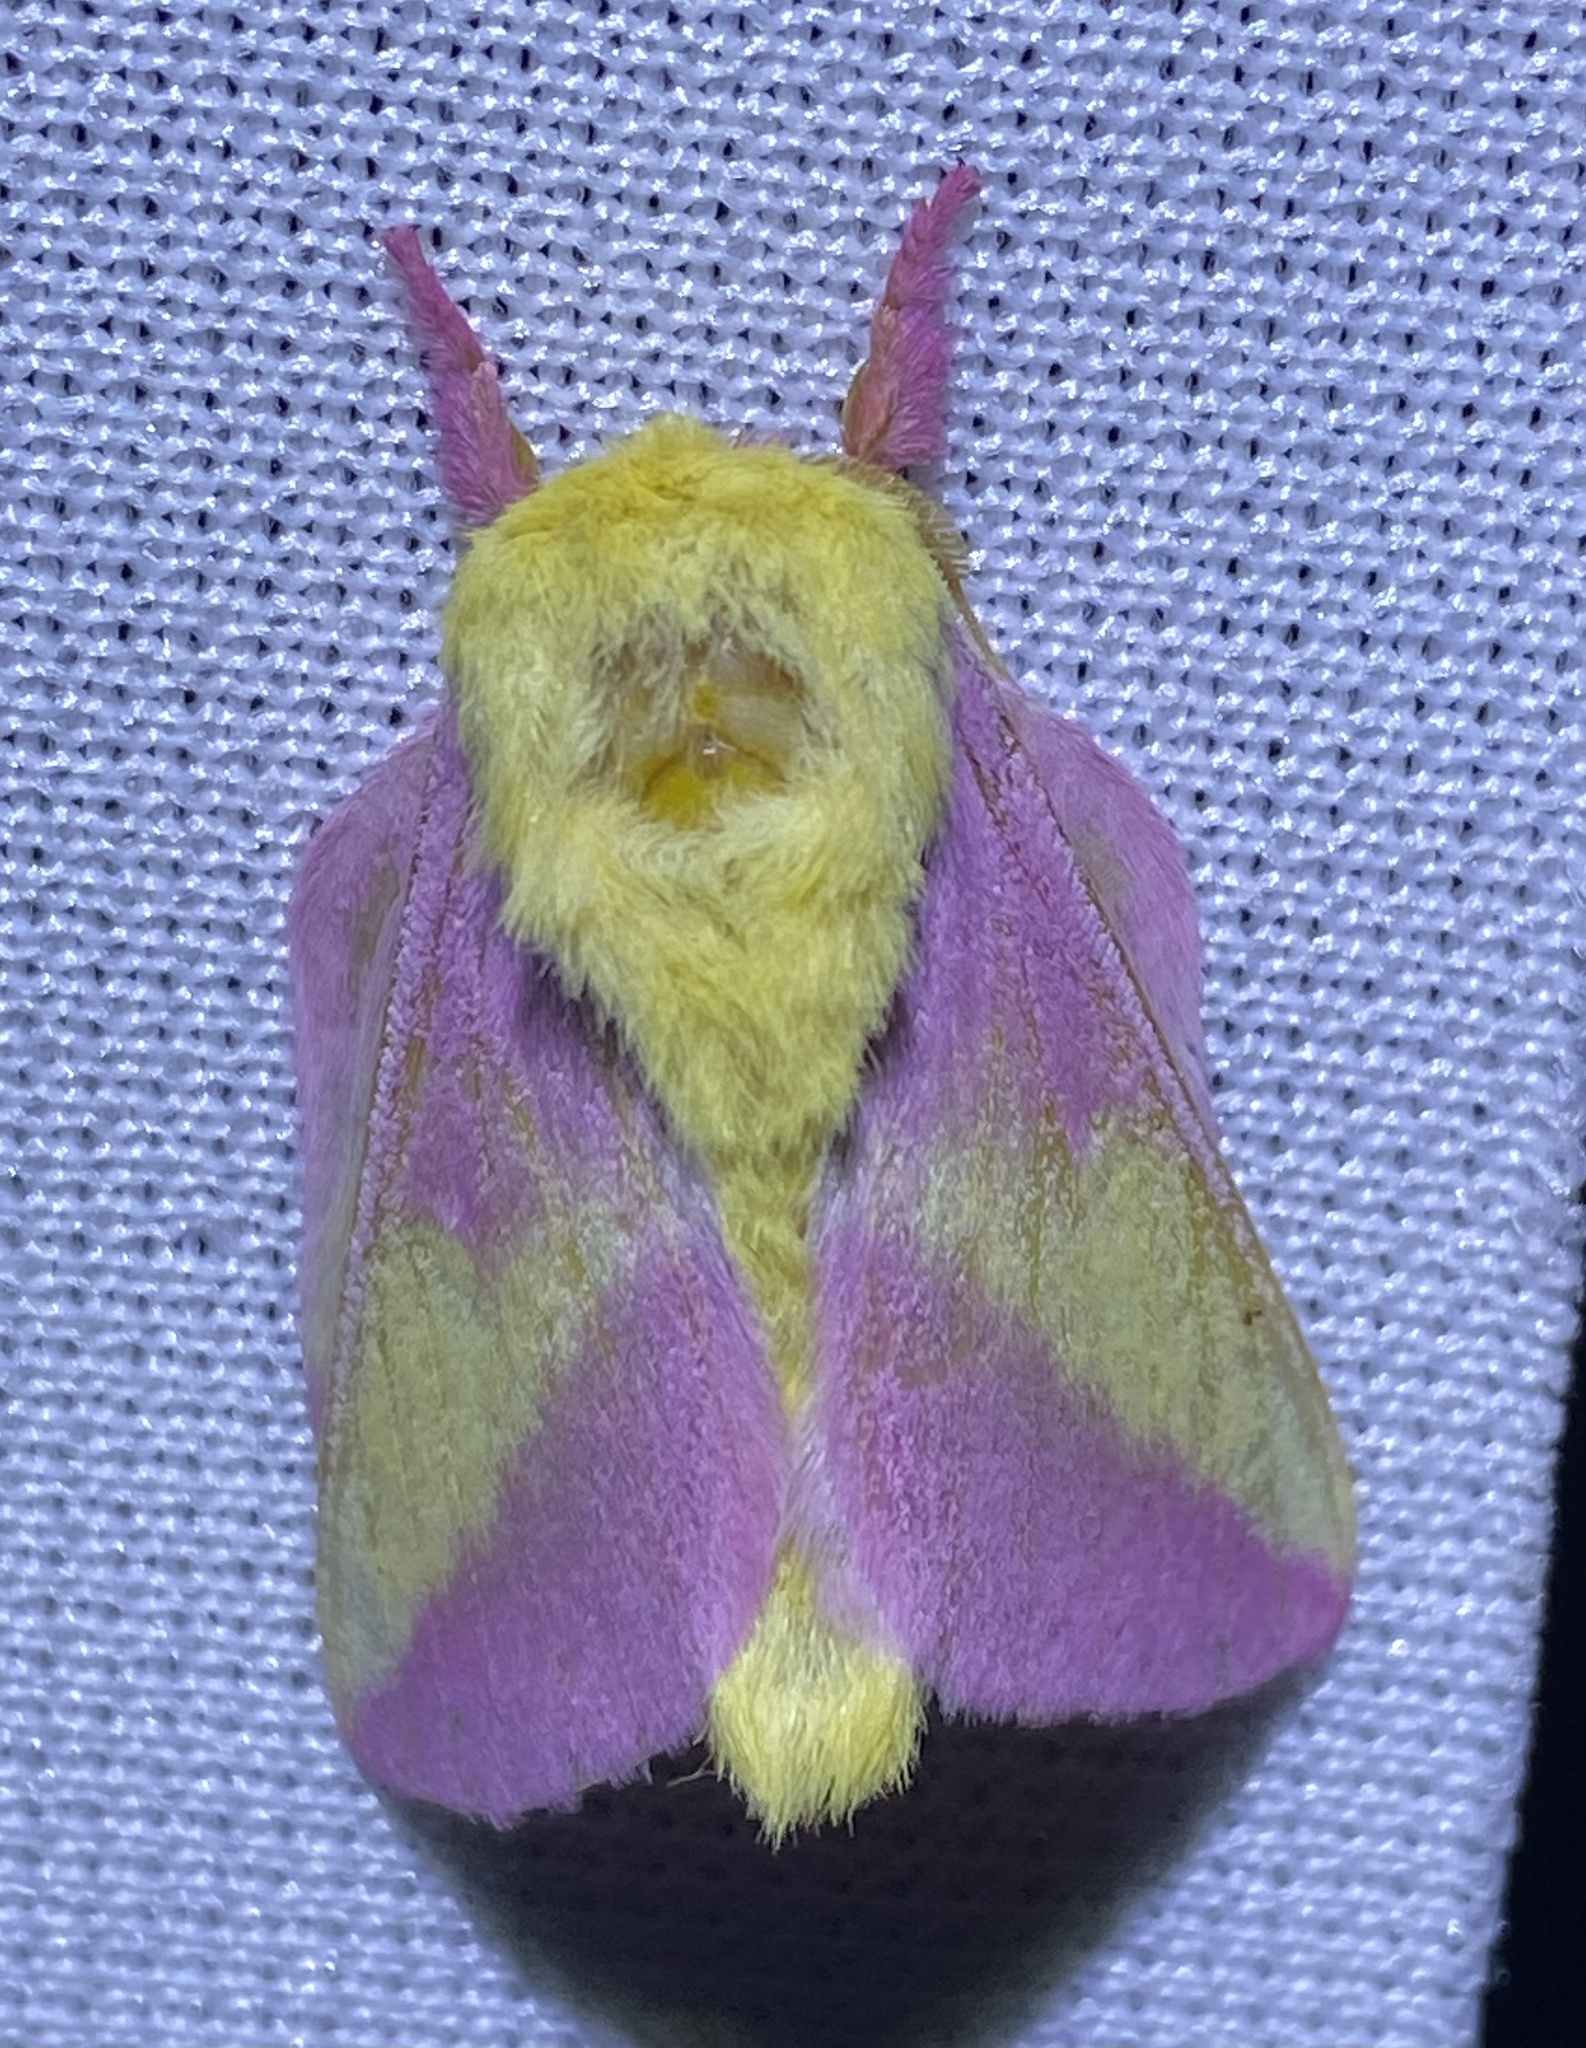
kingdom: Animalia
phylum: Arthropoda
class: Insecta
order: Lepidoptera
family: Saturniidae
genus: Dryocampa
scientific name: Dryocampa rubicunda
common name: Rosy maple moth
